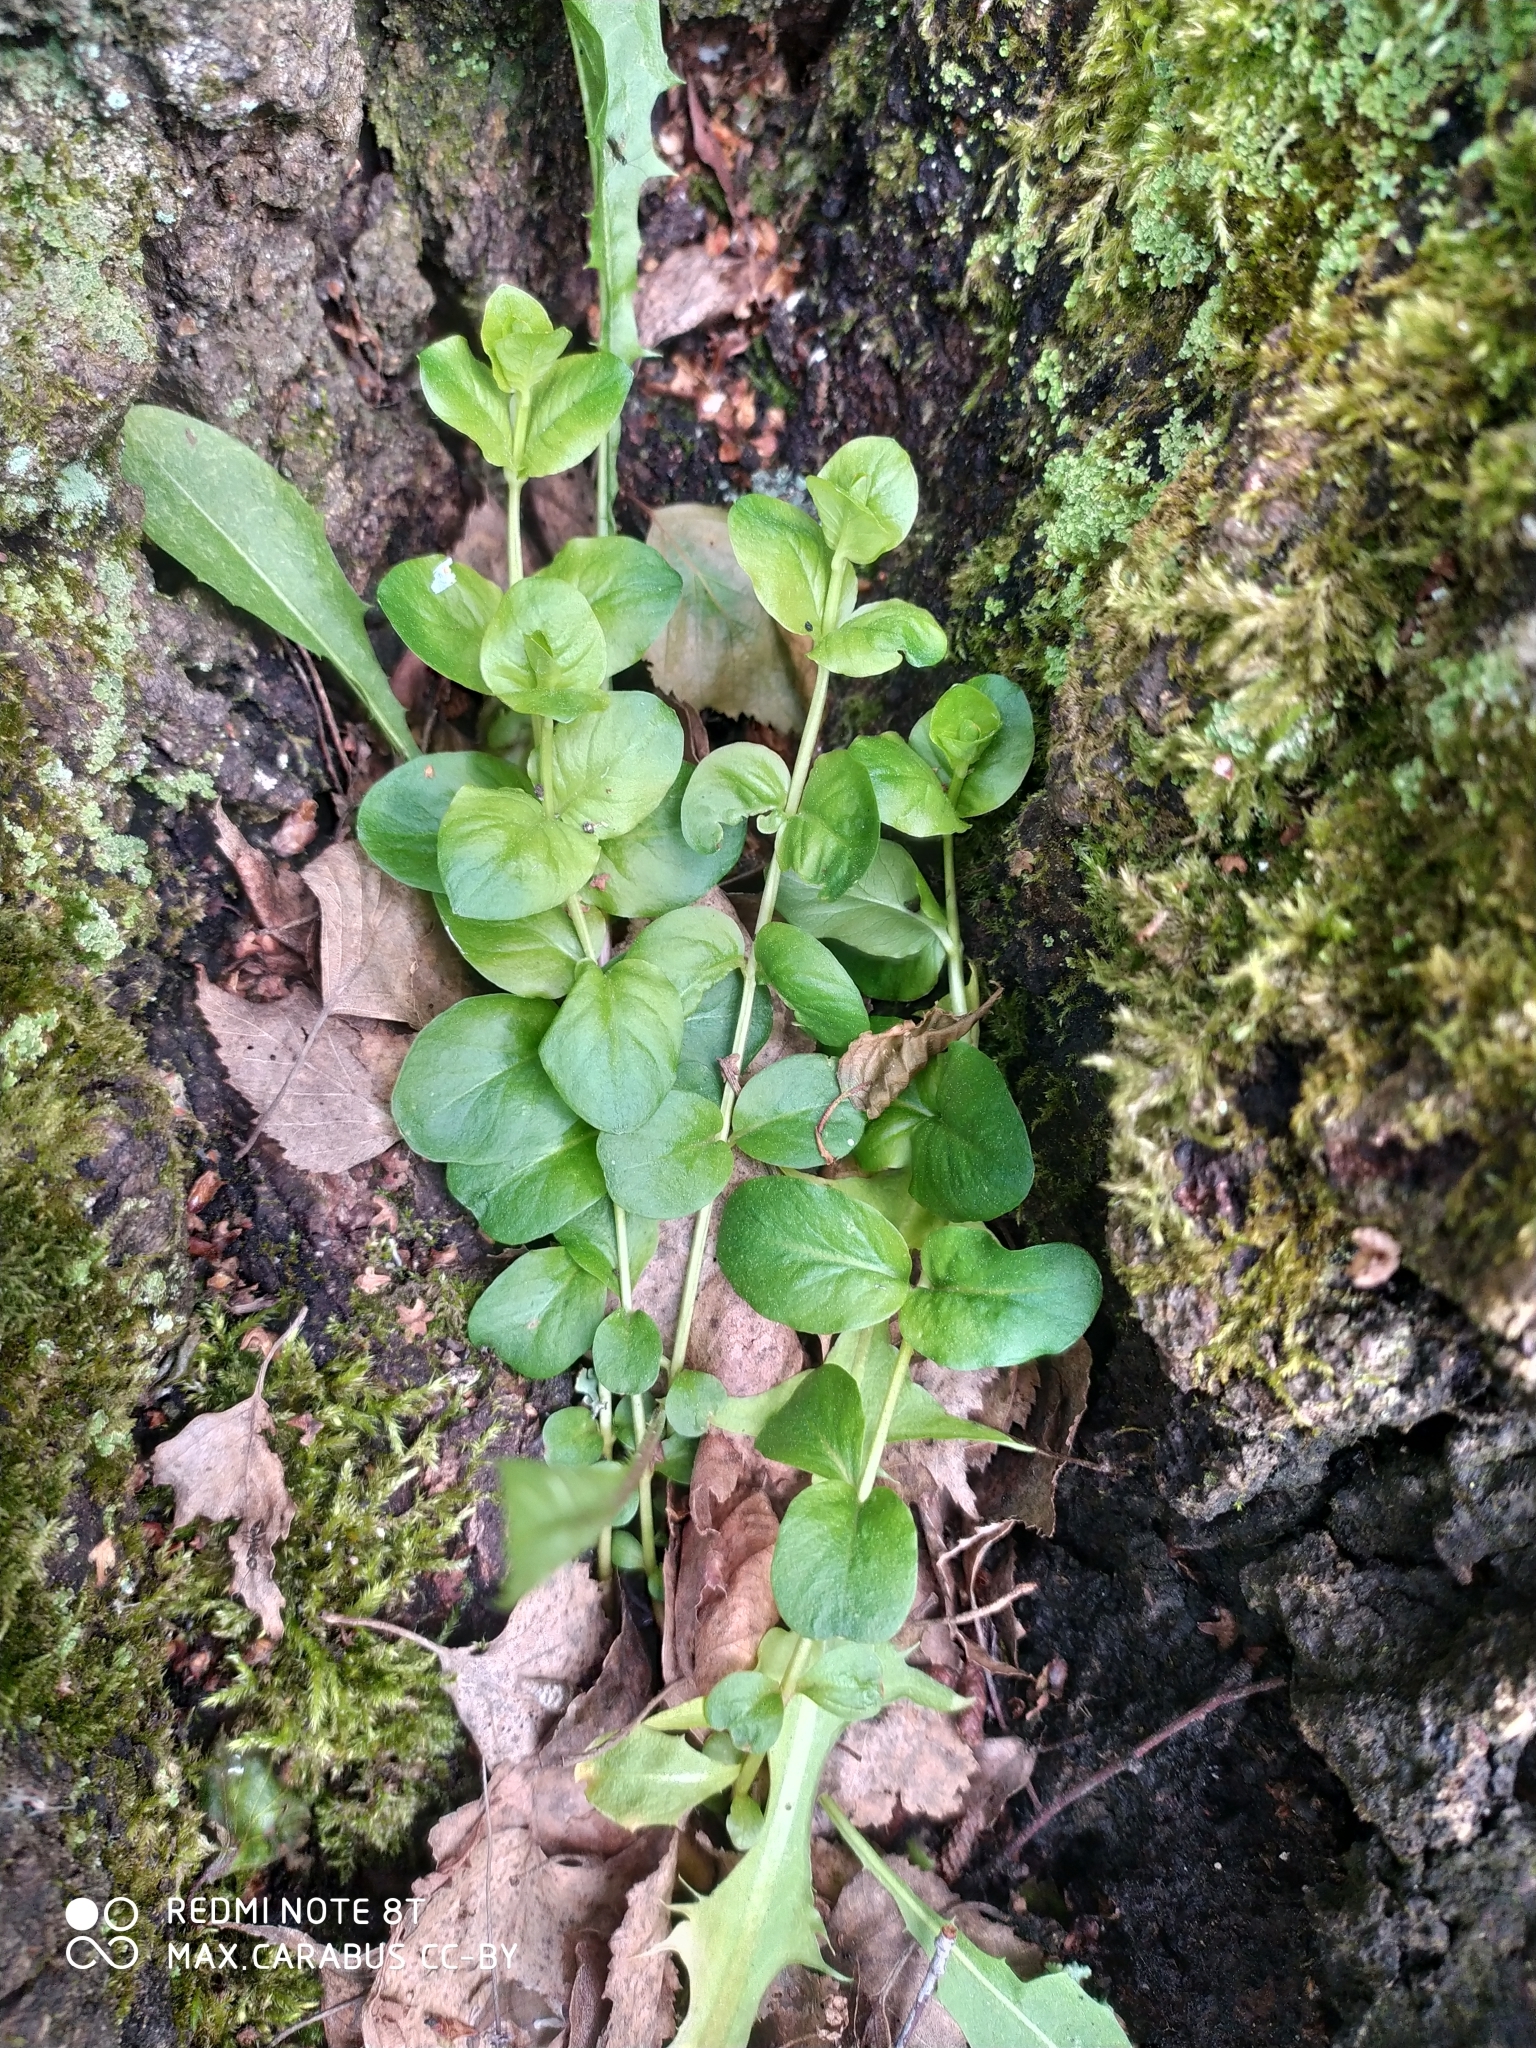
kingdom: Plantae
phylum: Tracheophyta
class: Magnoliopsida
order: Ericales
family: Primulaceae
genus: Lysimachia
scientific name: Lysimachia nummularia
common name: Moneywort
